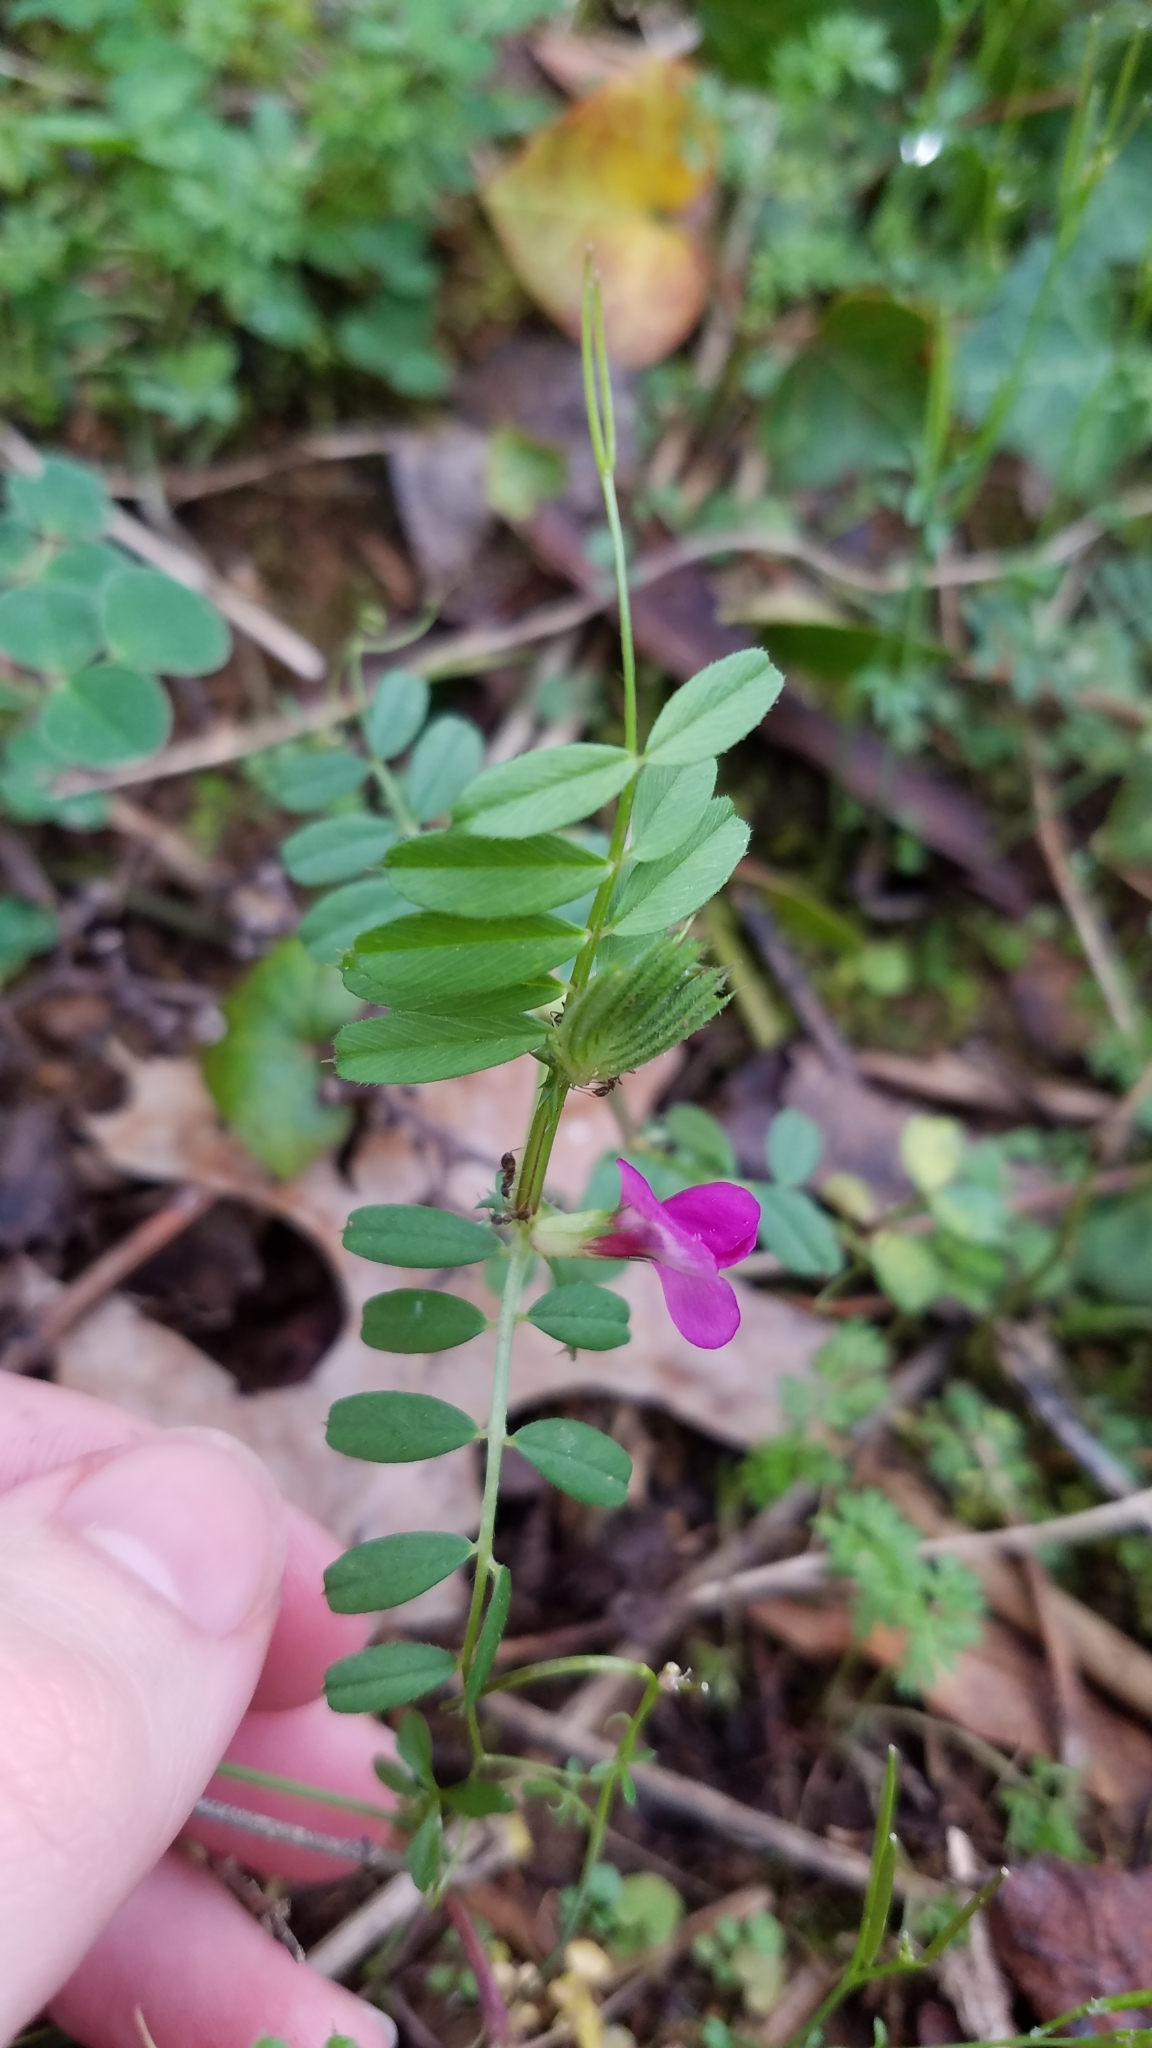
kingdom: Plantae
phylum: Tracheophyta
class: Magnoliopsida
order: Fabales
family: Fabaceae
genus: Vicia
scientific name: Vicia sativa
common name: Garden vetch
